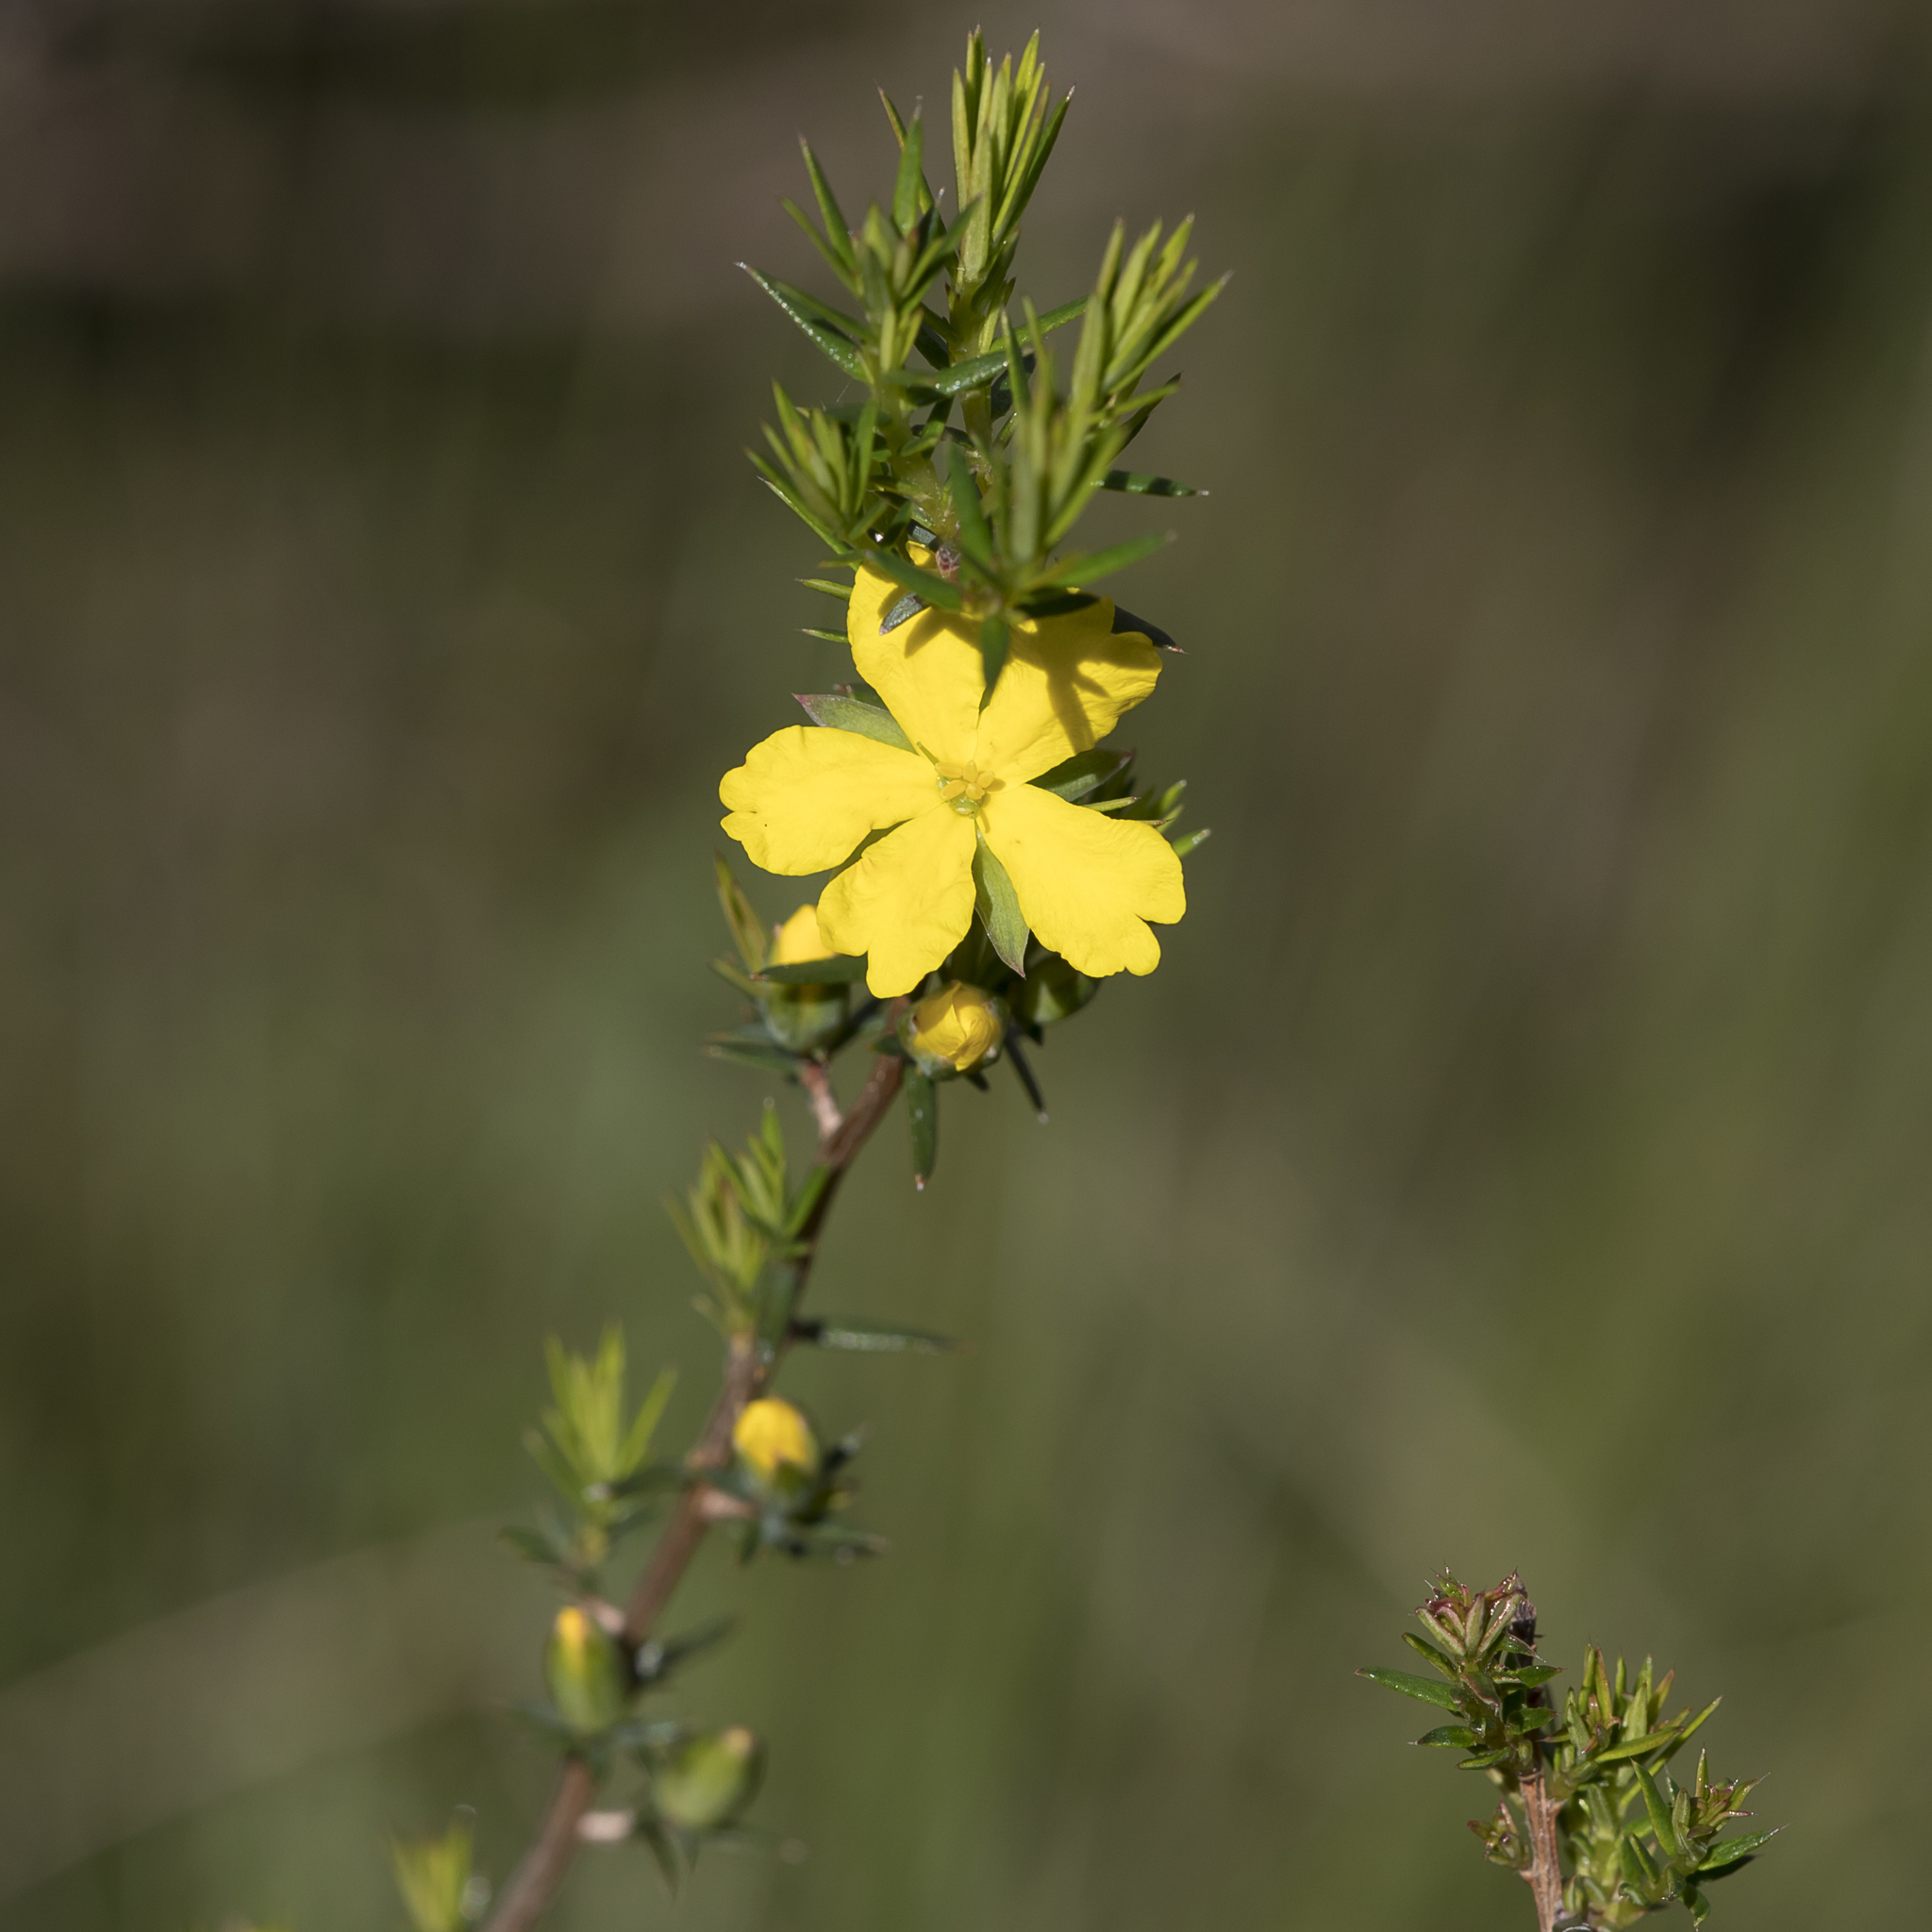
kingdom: Plantae
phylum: Tracheophyta
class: Magnoliopsida
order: Dilleniales
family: Dilleniaceae
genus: Hibbertia
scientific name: Hibbertia exutiacies
